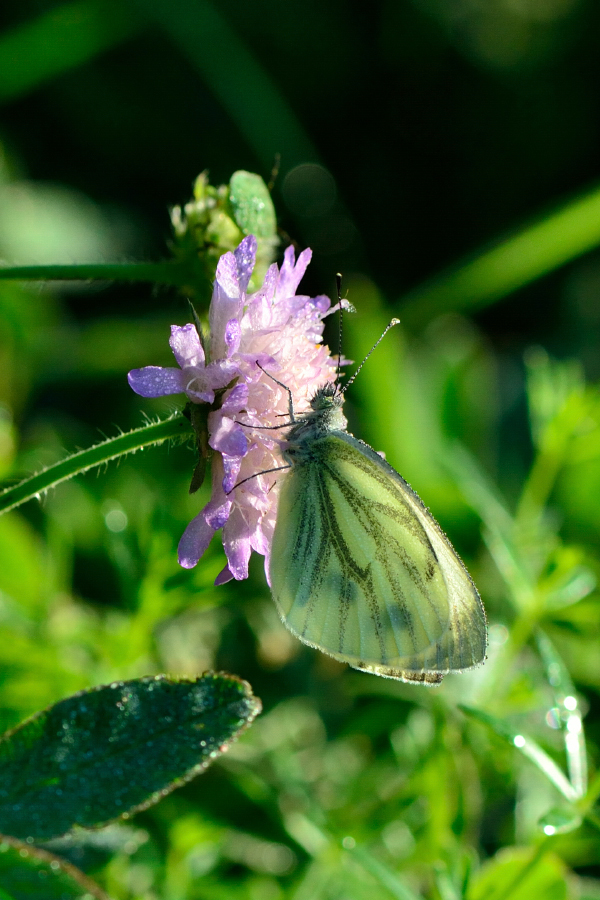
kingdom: Animalia
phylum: Arthropoda
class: Insecta
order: Lepidoptera
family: Pieridae
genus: Pieris
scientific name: Pieris napi
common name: Green-veined white
